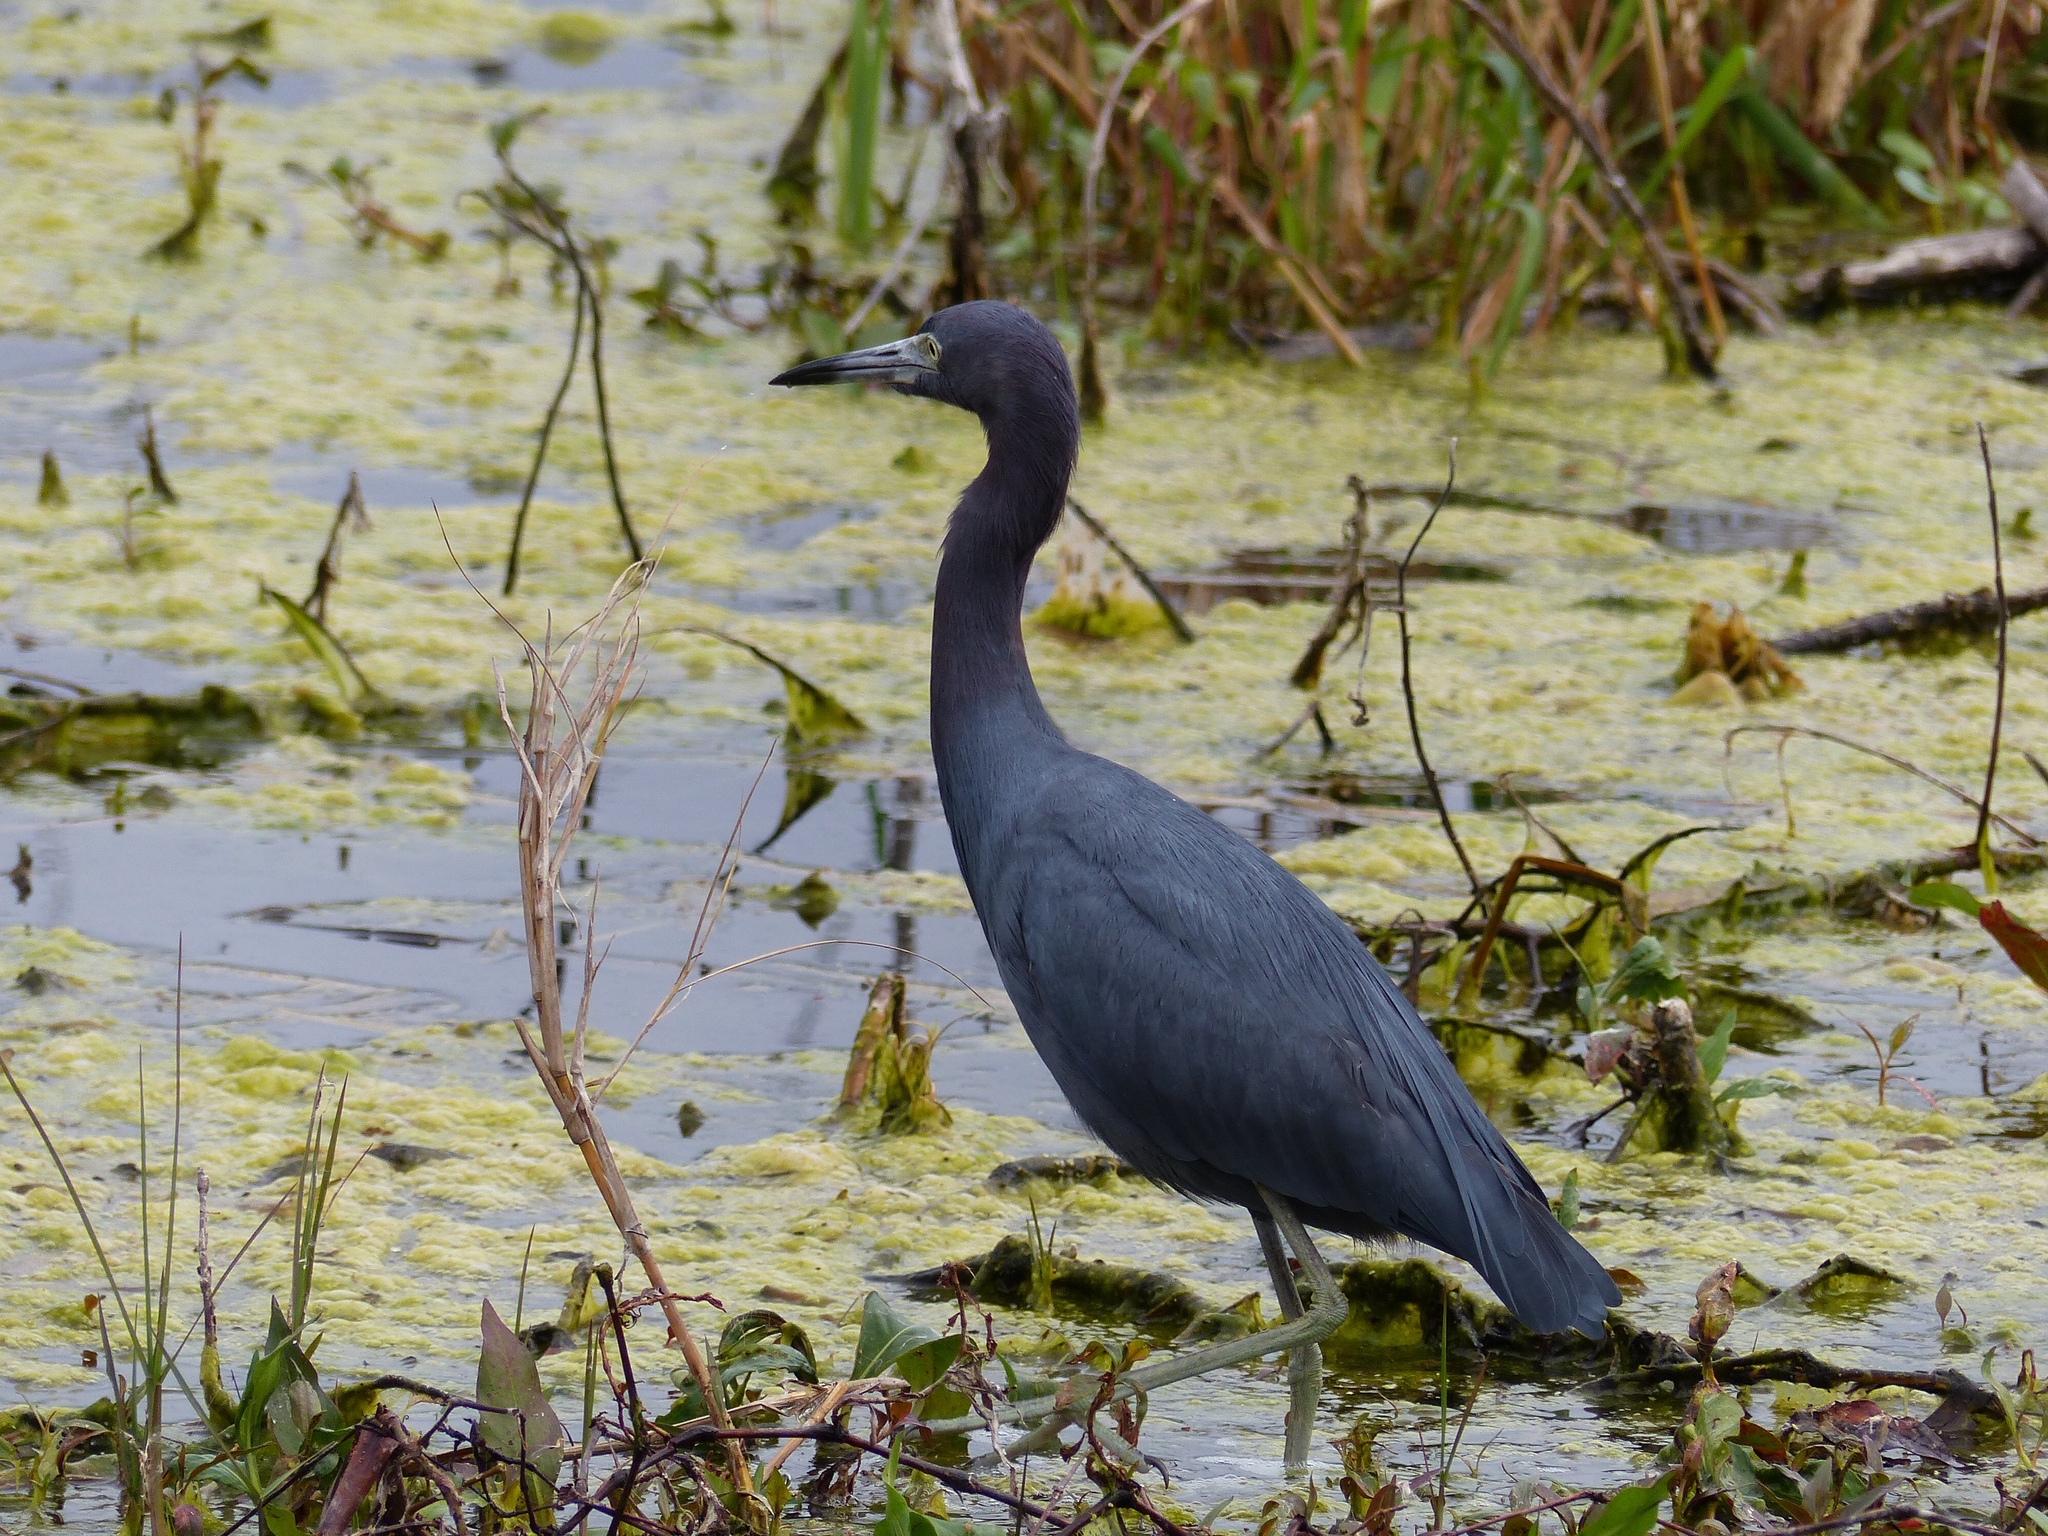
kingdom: Animalia
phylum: Chordata
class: Aves
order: Pelecaniformes
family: Ardeidae
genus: Egretta
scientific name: Egretta caerulea
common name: Little blue heron
